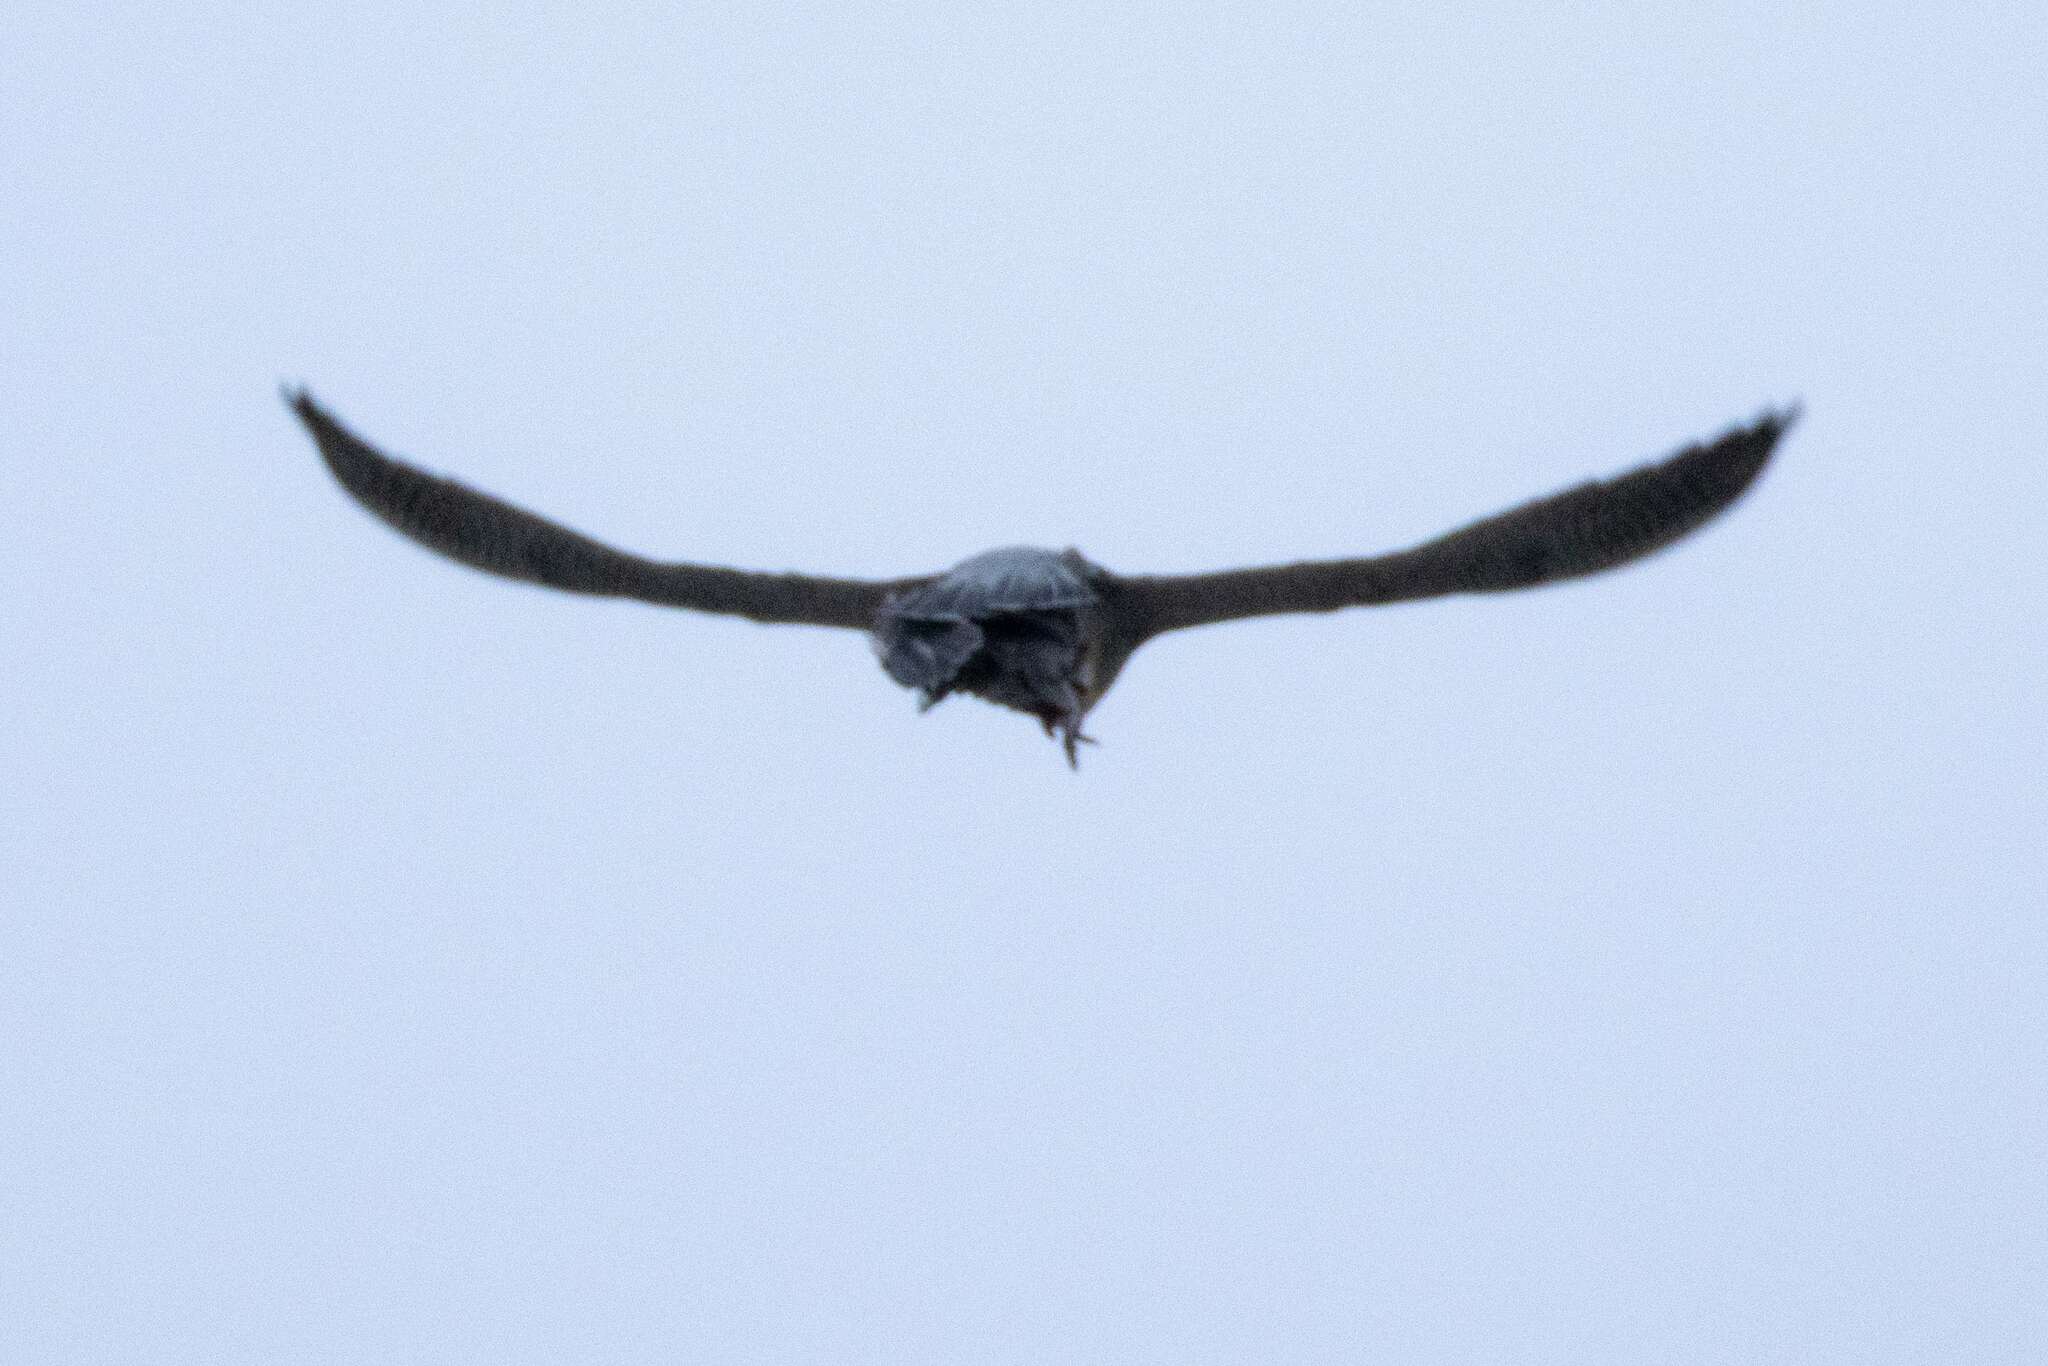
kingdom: Animalia
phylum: Chordata
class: Aves
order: Falconiformes
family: Falconidae
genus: Falco
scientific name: Falco peregrinus
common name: Peregrine falcon
